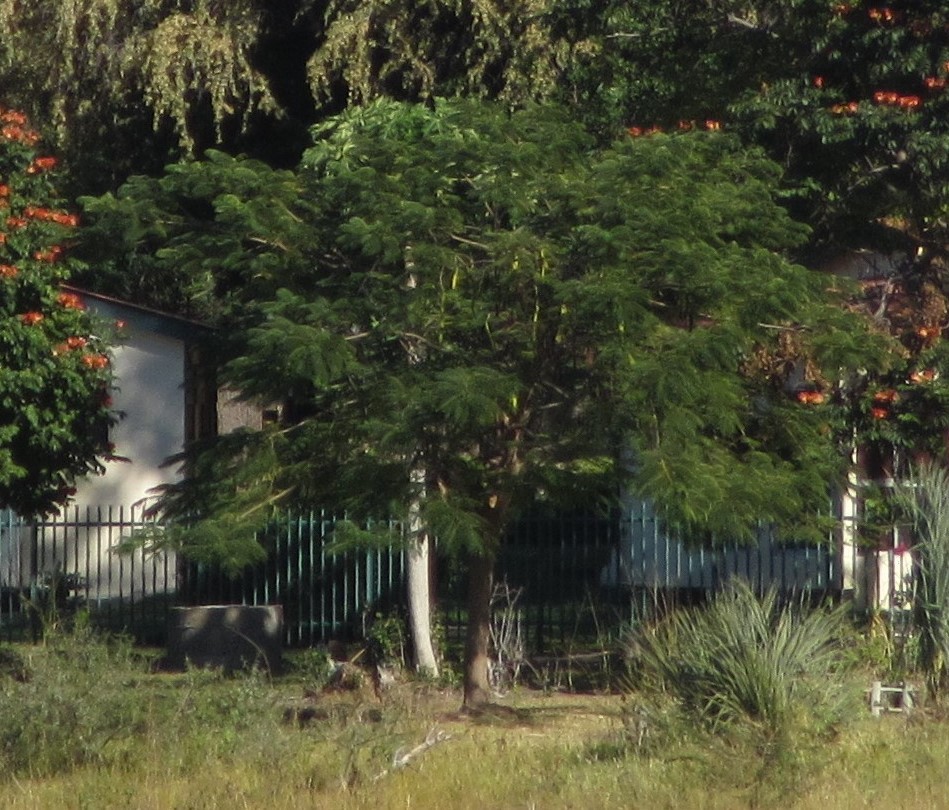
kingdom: Plantae
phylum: Tracheophyta
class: Magnoliopsida
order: Fabales
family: Fabaceae
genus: Delonix
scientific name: Delonix regia
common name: Royal poinciana
